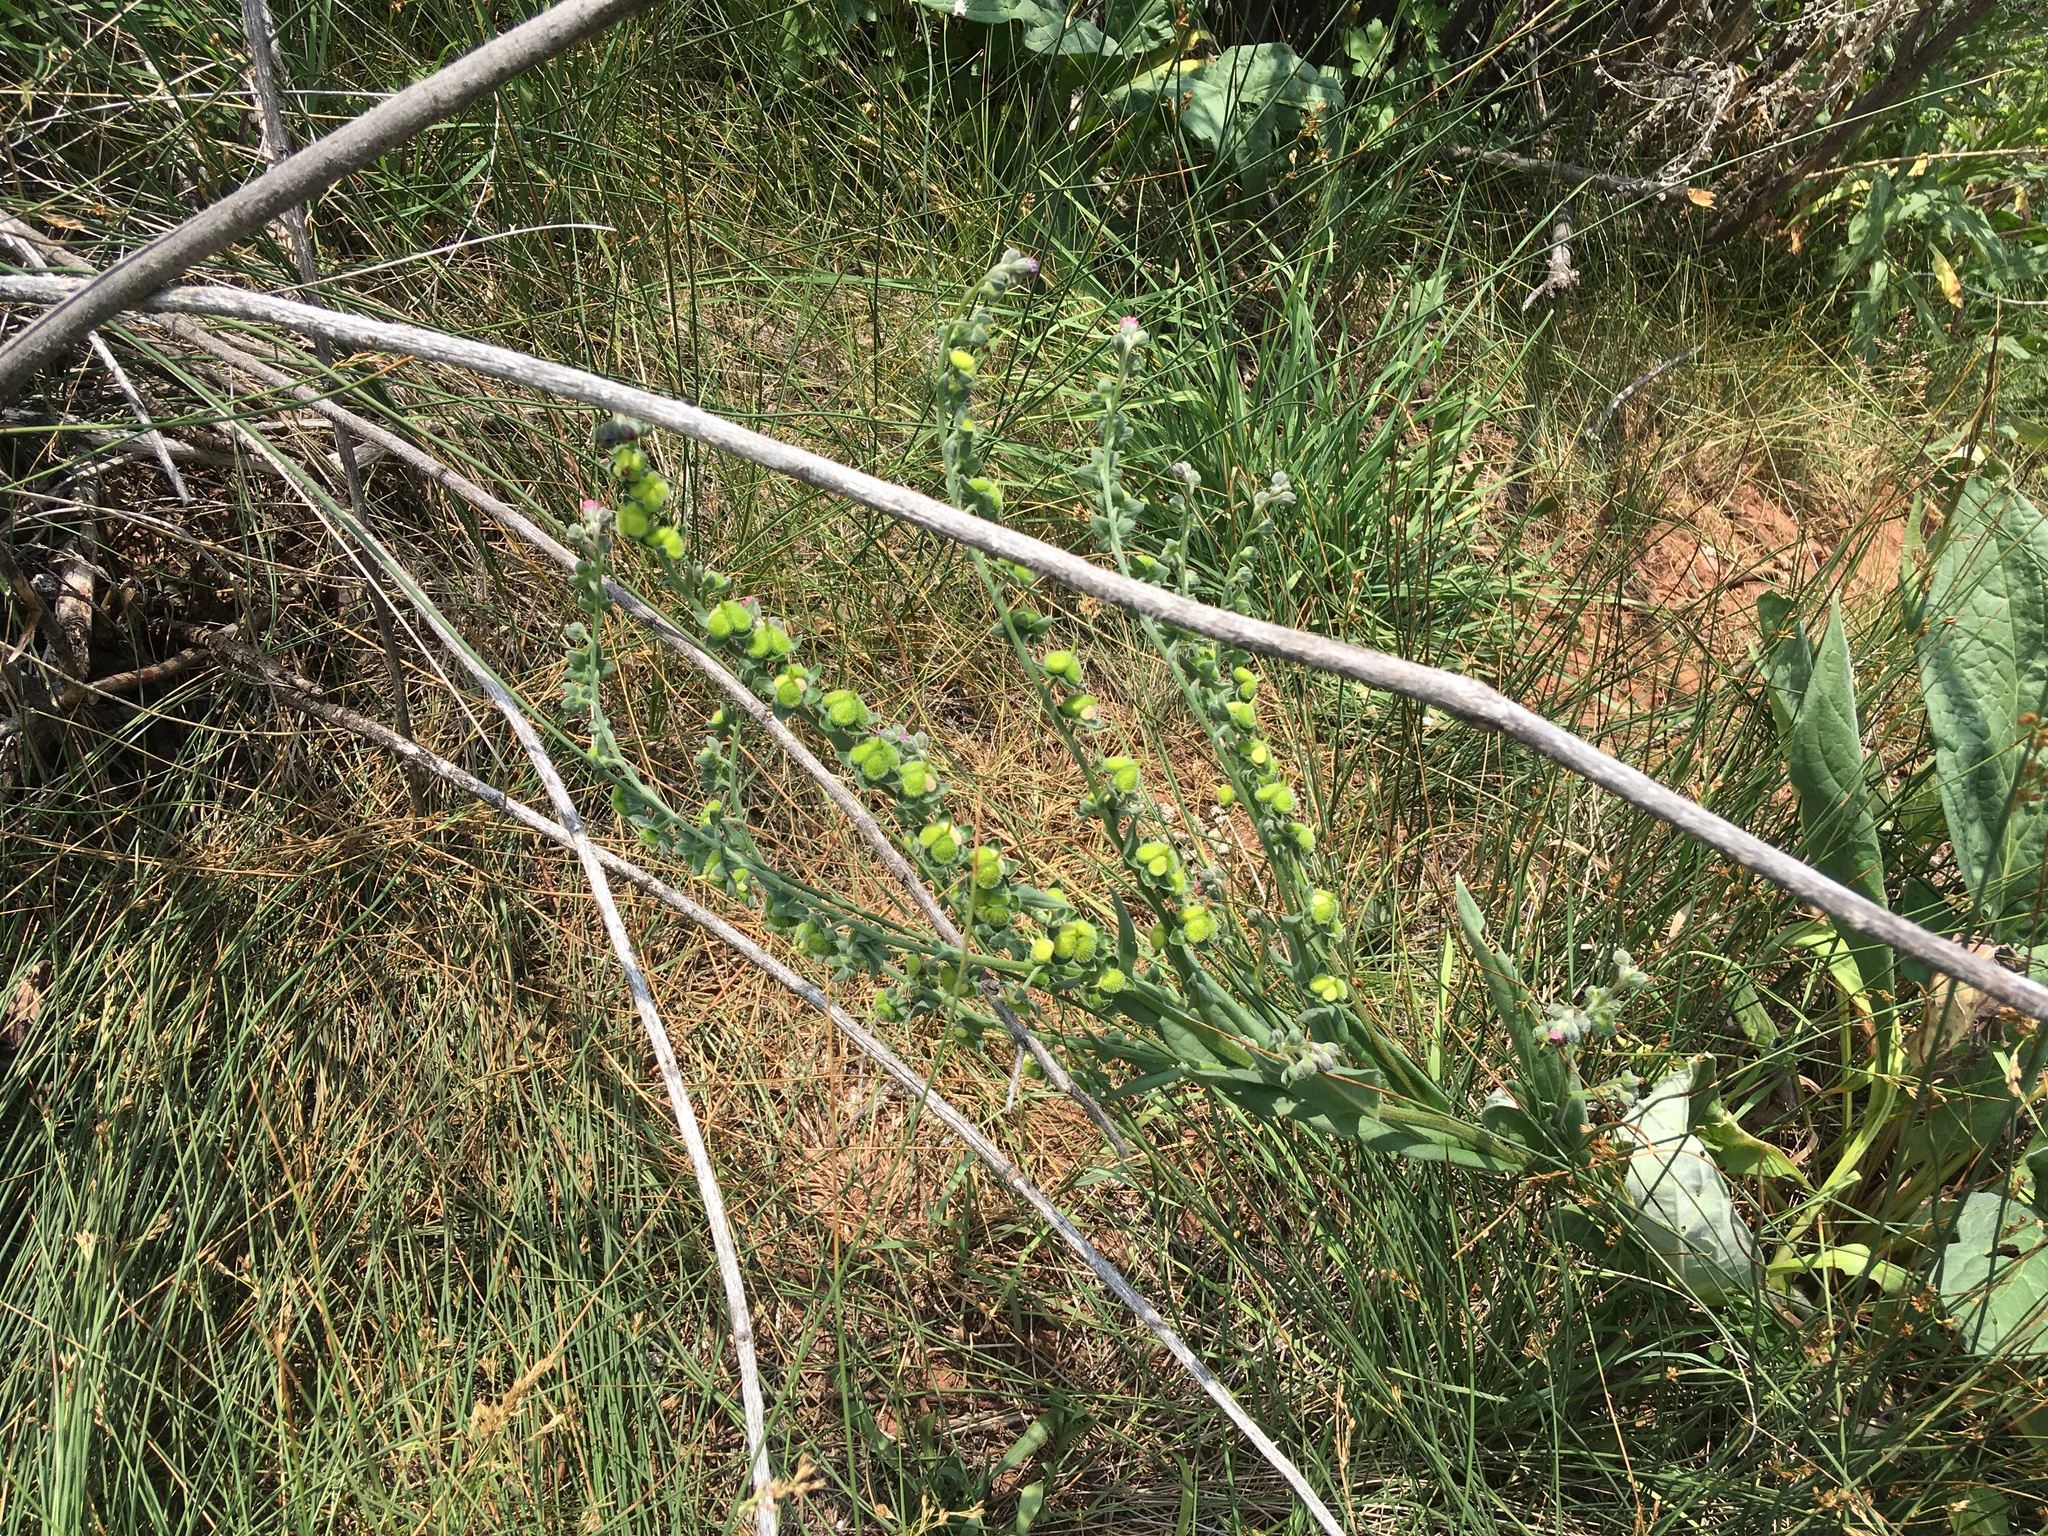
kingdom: Plantae
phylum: Tracheophyta
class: Magnoliopsida
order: Boraginales
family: Boraginaceae
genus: Cynoglossum
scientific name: Cynoglossum officinale
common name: Hound's-tongue
